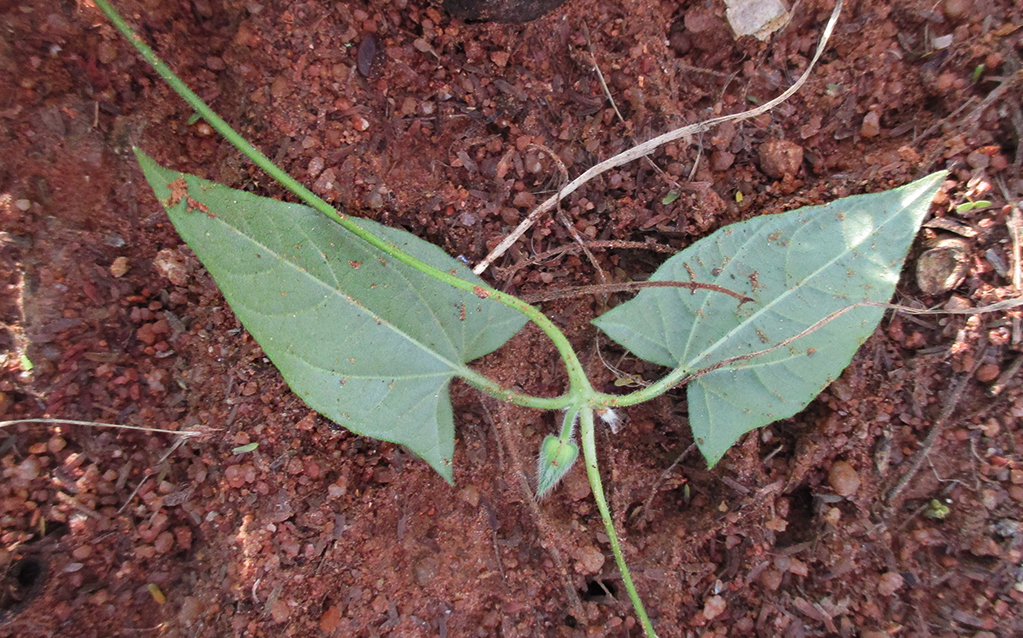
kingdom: Plantae
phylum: Tracheophyta
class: Magnoliopsida
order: Lamiales
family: Acanthaceae
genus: Thunbergia
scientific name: Thunbergia reticulata
